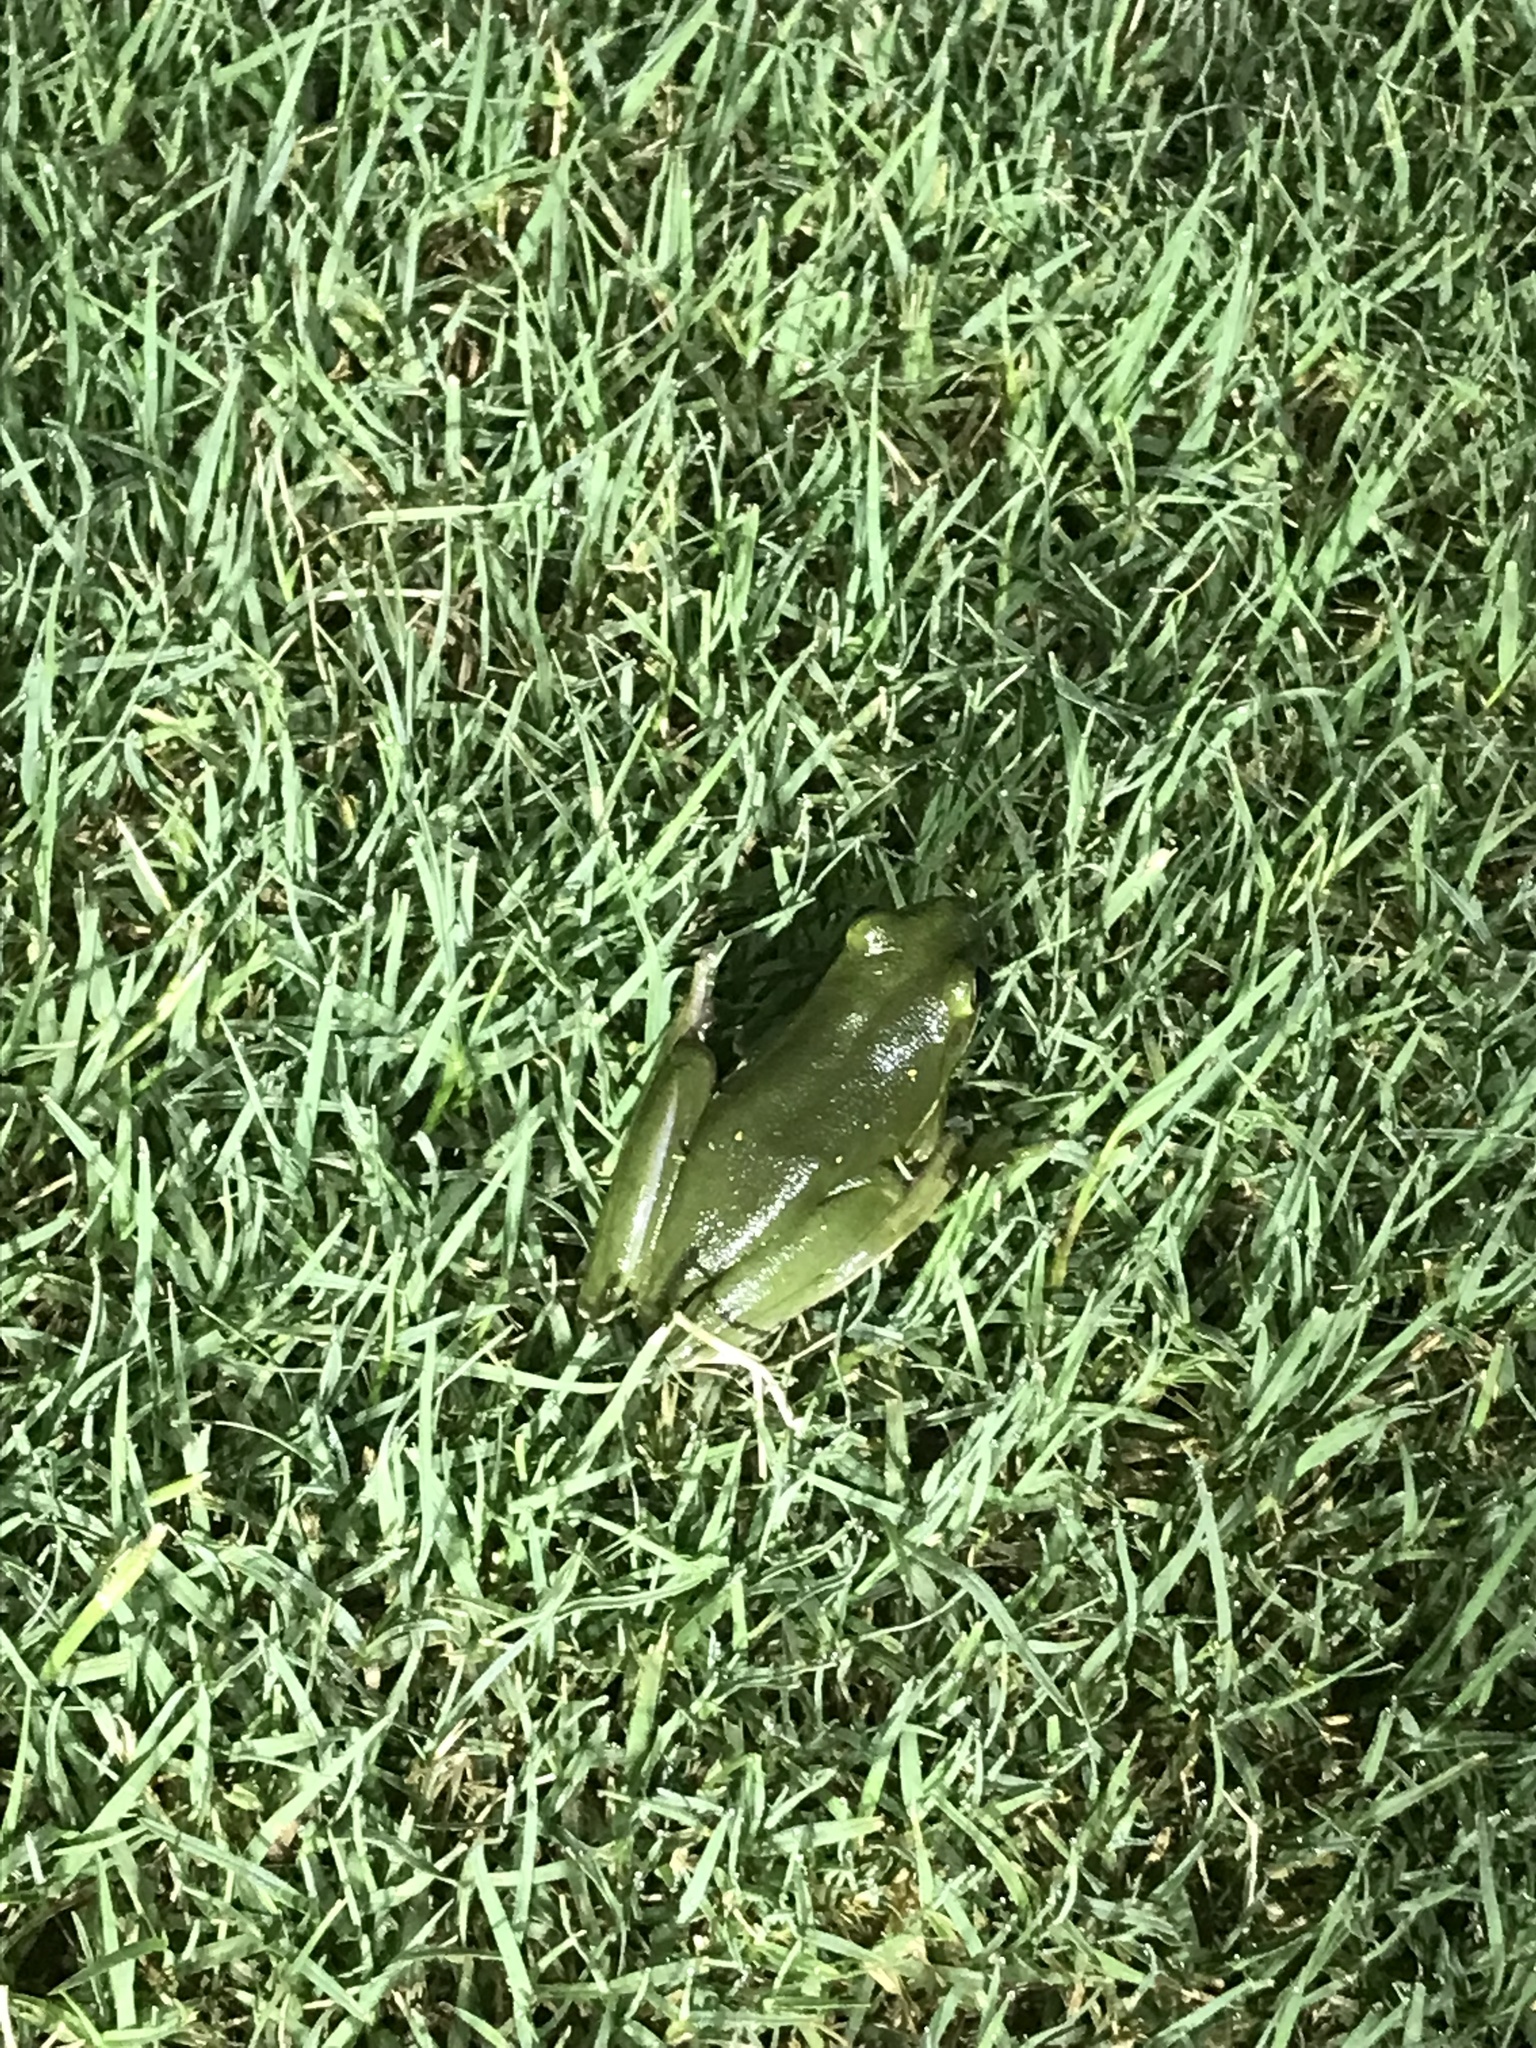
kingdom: Animalia
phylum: Chordata
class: Amphibia
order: Anura
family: Hylidae
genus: Dryophytes
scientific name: Dryophytes cinereus
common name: Green treefrog
